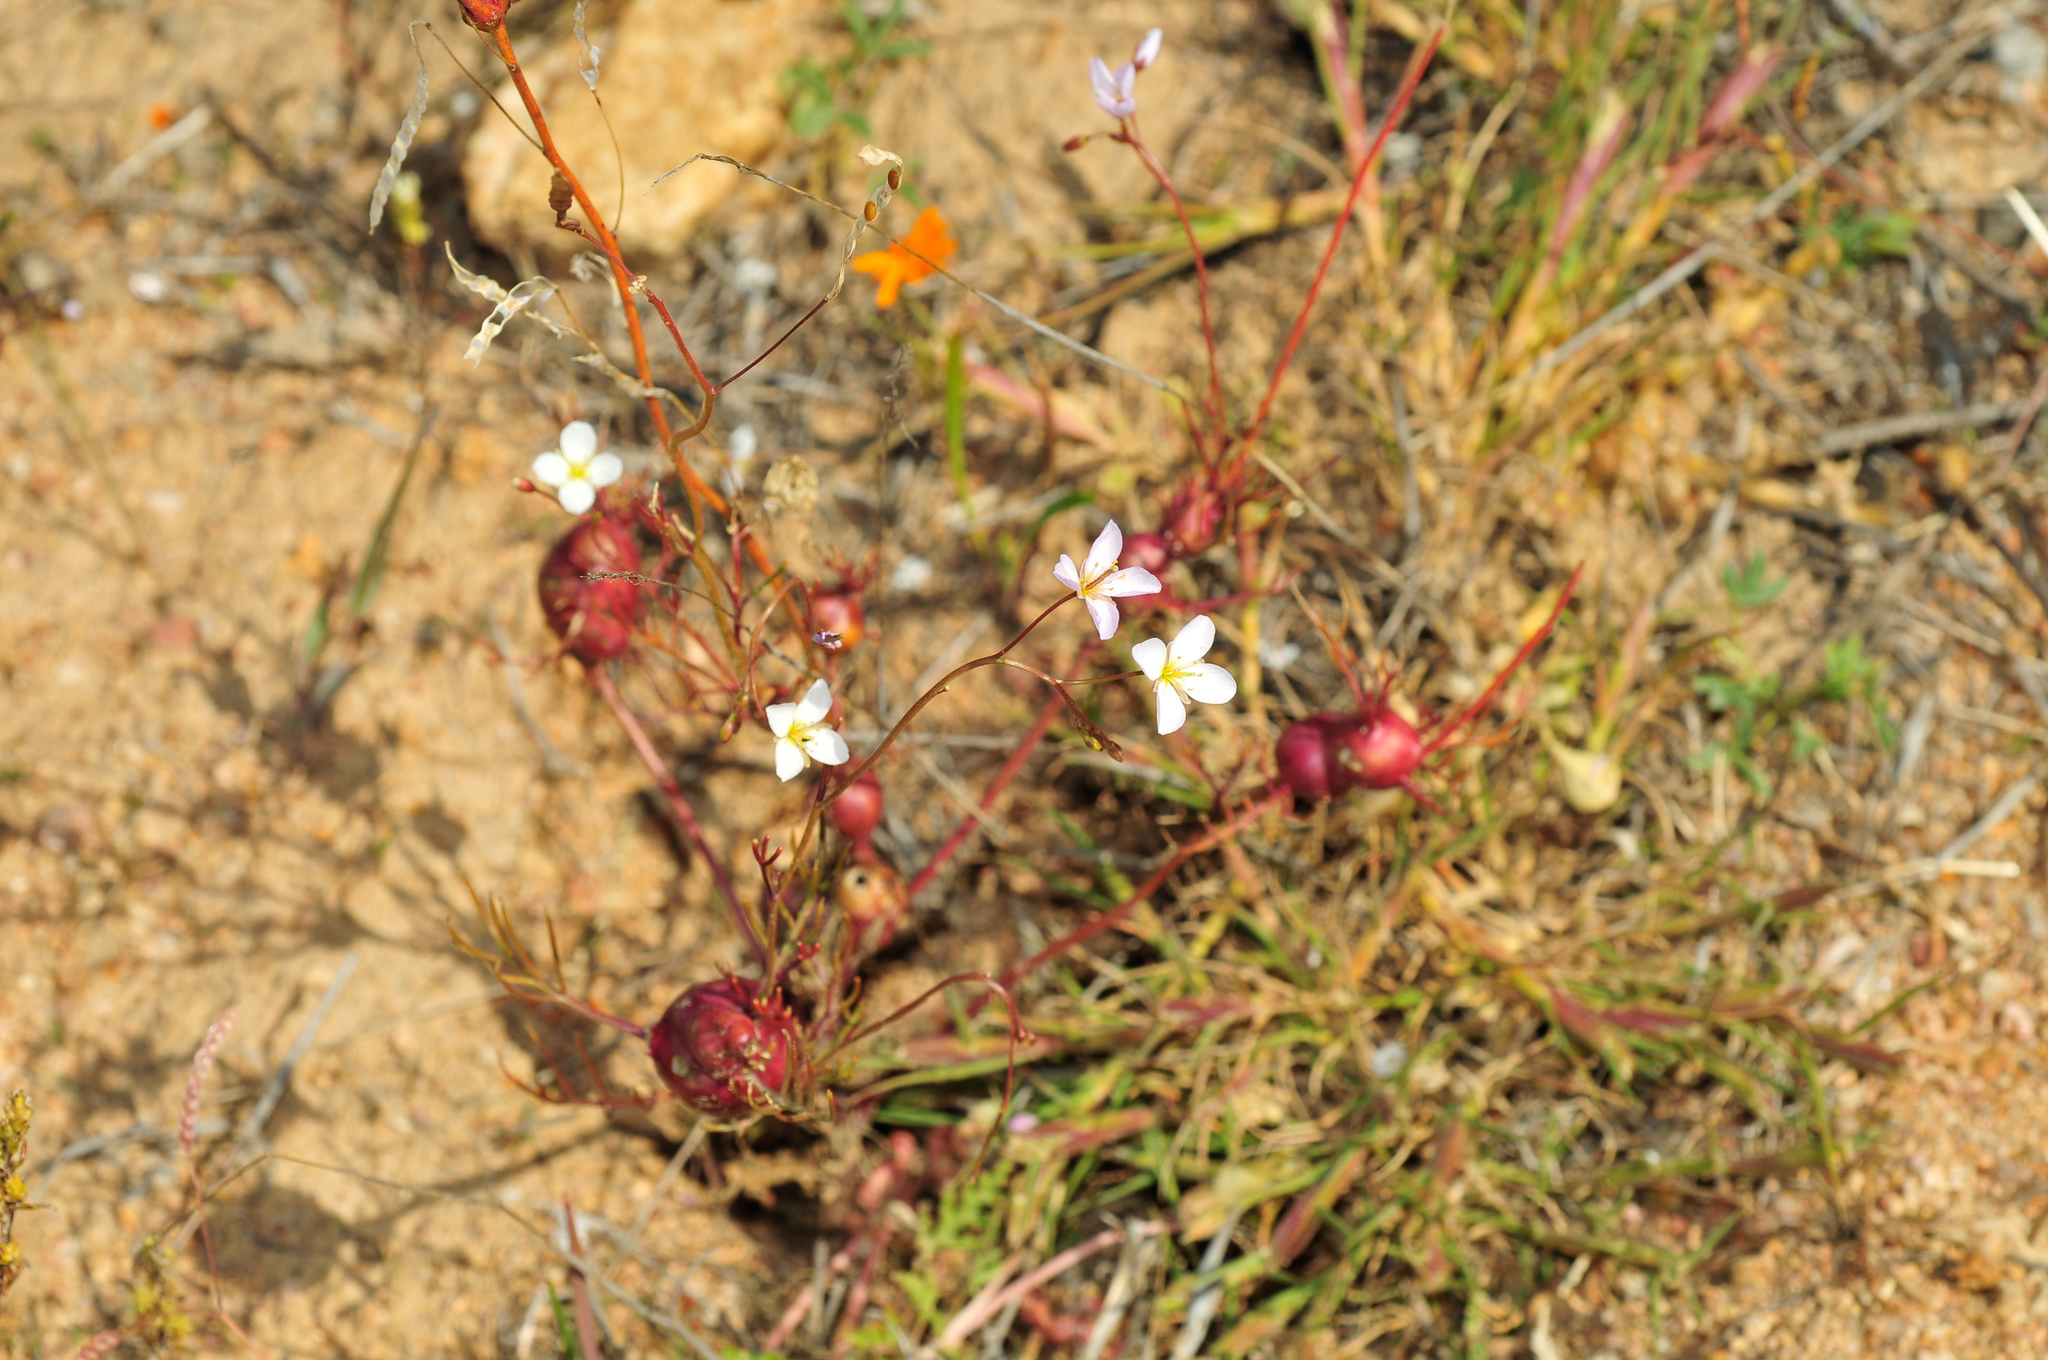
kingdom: Plantae
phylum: Tracheophyta
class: Magnoliopsida
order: Brassicales
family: Brassicaceae
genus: Heliophila
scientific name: Heliophila variabilis
